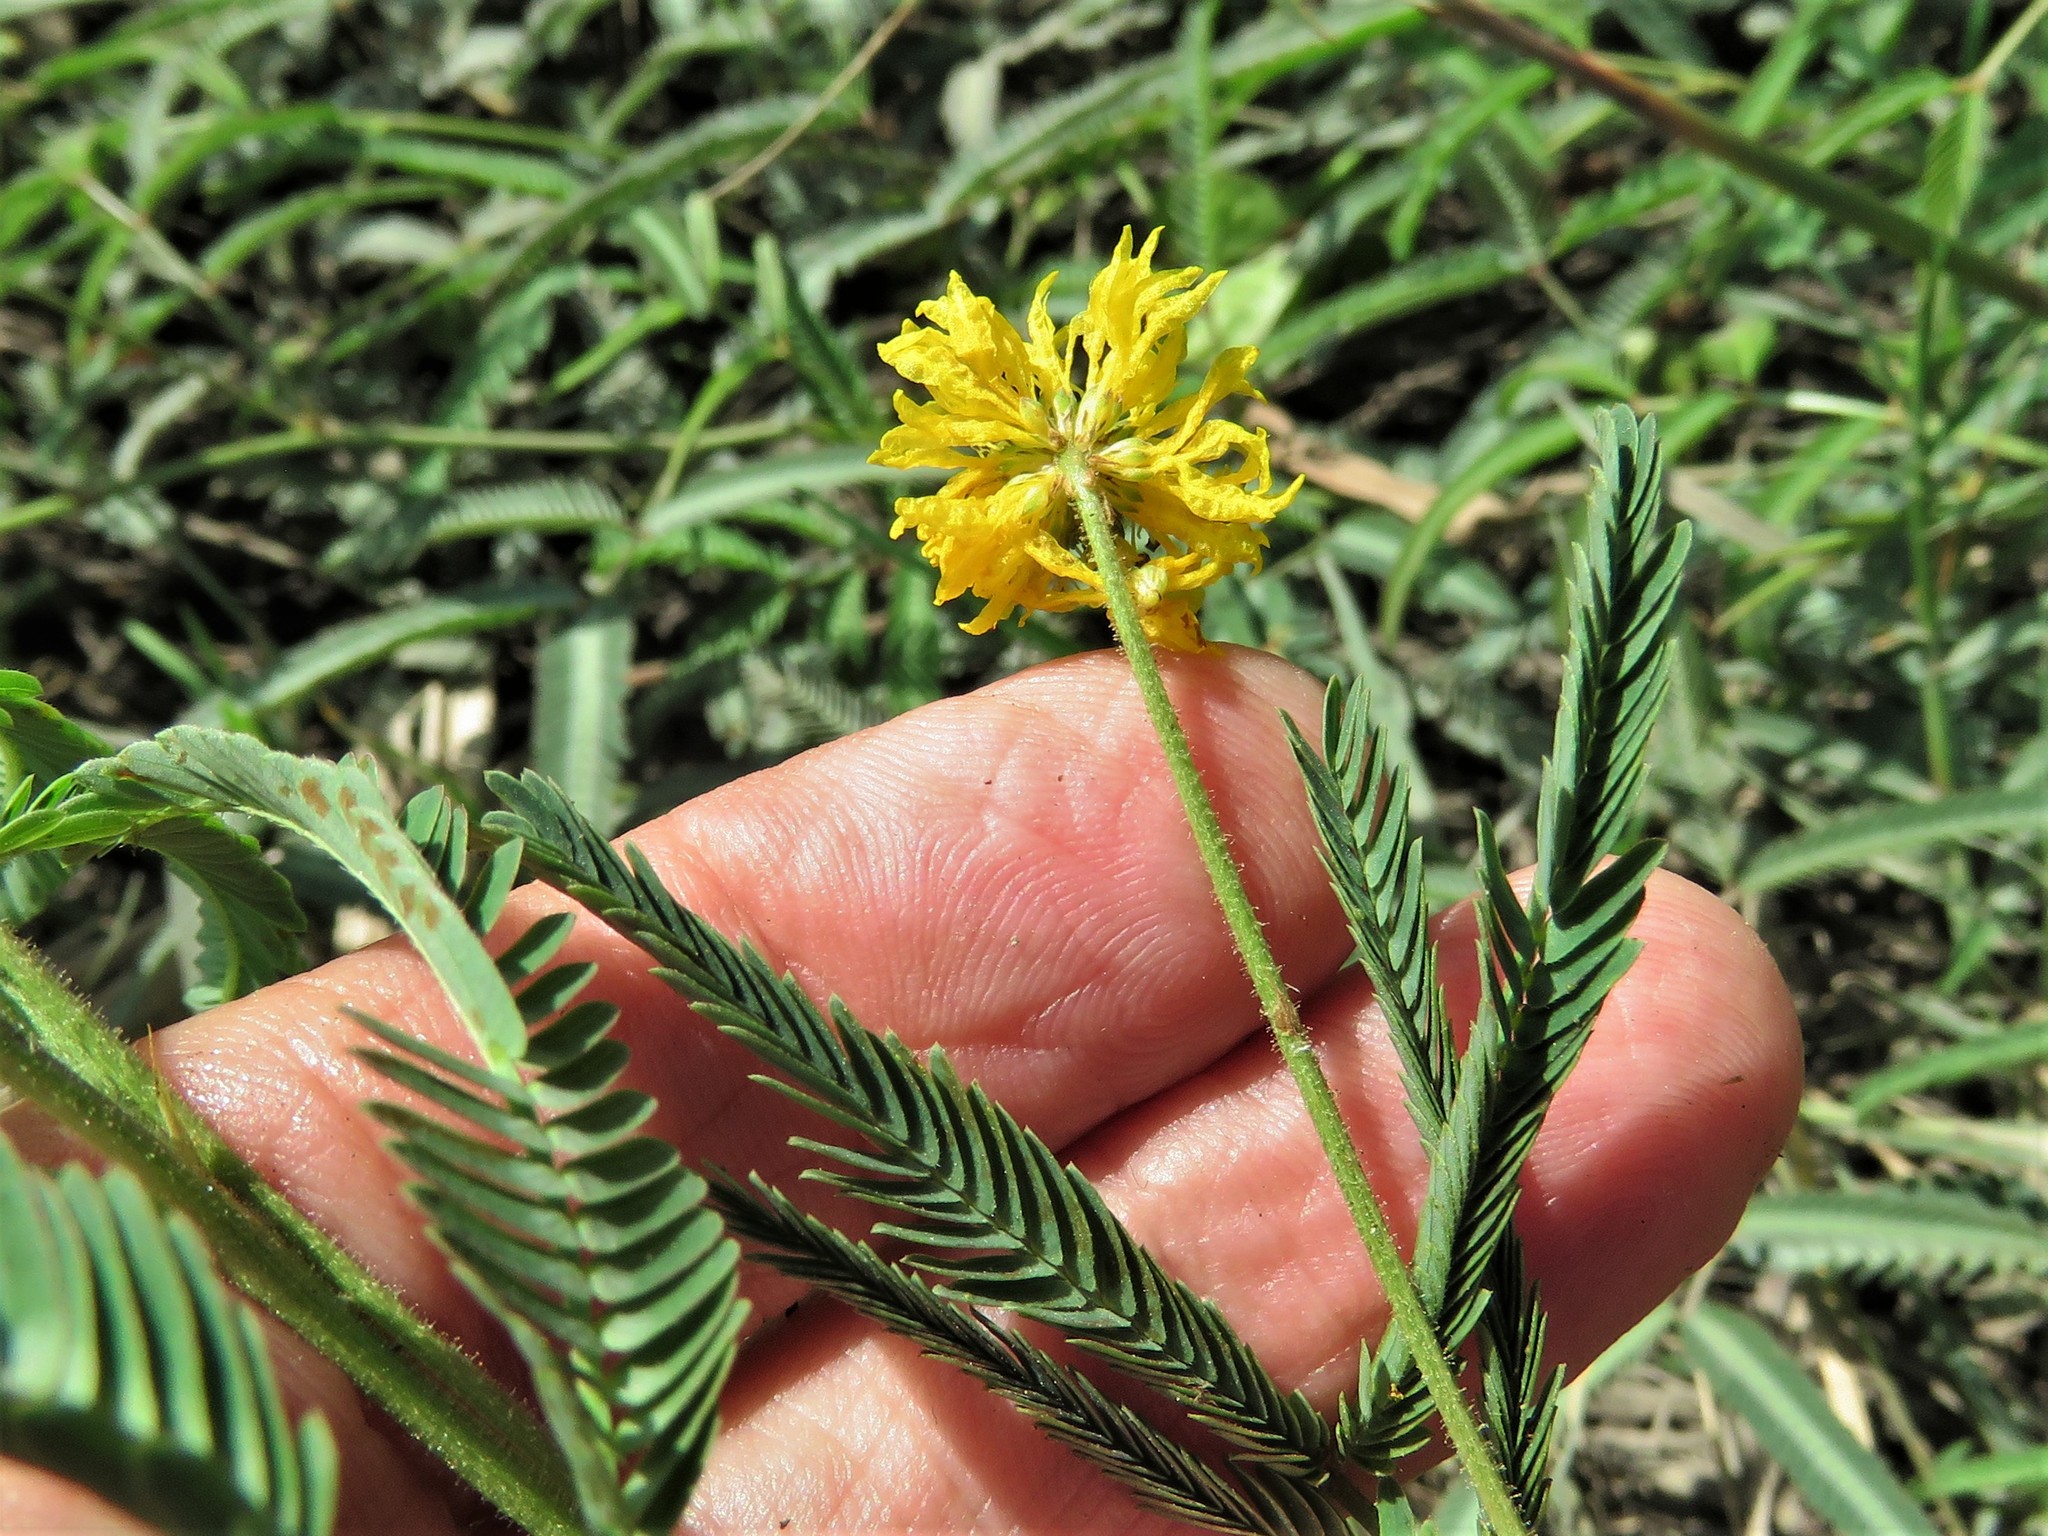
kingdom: Plantae
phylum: Tracheophyta
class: Magnoliopsida
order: Fabales
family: Fabaceae
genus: Neptunia
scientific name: Neptunia pubescens
